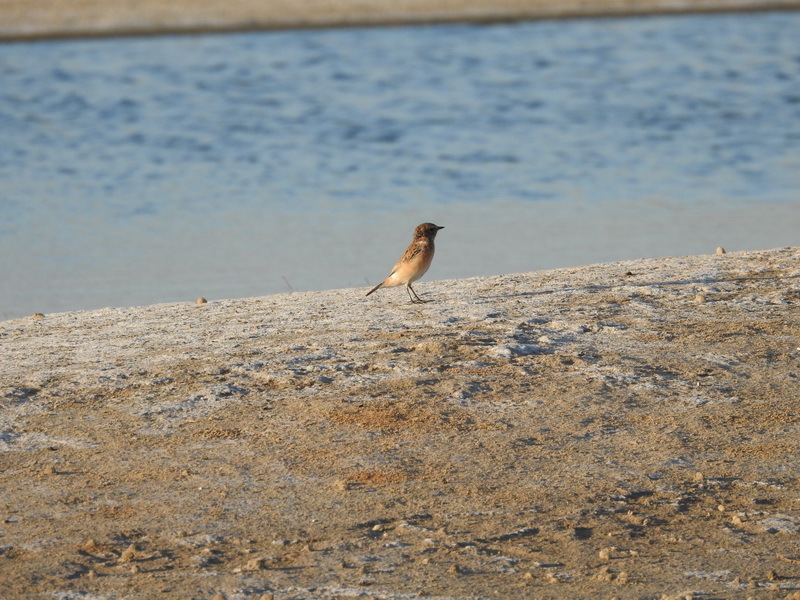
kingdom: Animalia
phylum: Chordata
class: Aves
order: Passeriformes
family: Muscicapidae
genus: Saxicola
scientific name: Saxicola maurus
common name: Siberian stonechat
